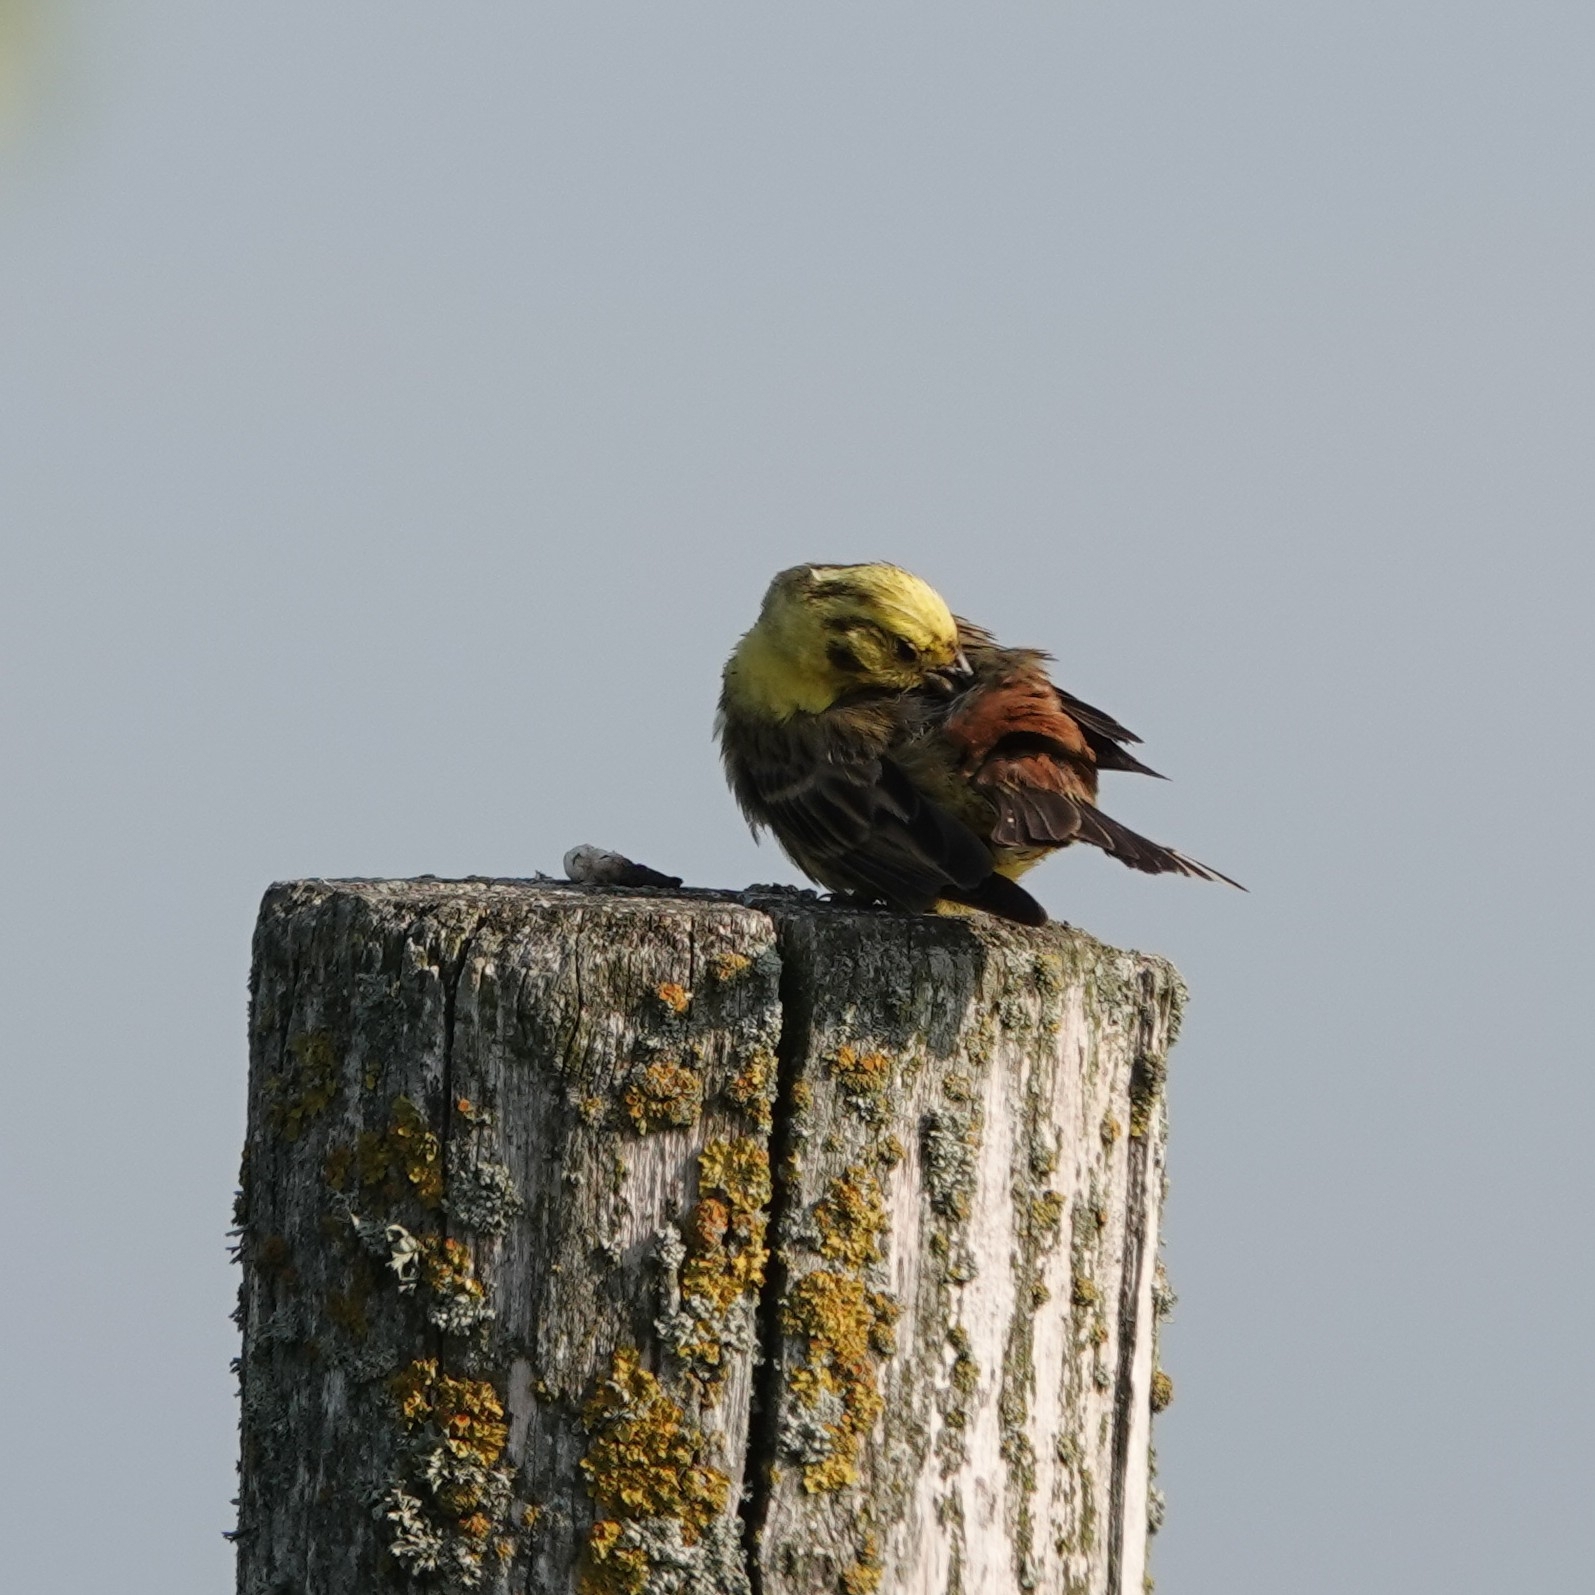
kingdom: Animalia
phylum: Chordata
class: Aves
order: Passeriformes
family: Emberizidae
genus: Emberiza
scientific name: Emberiza citrinella
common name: Yellowhammer
